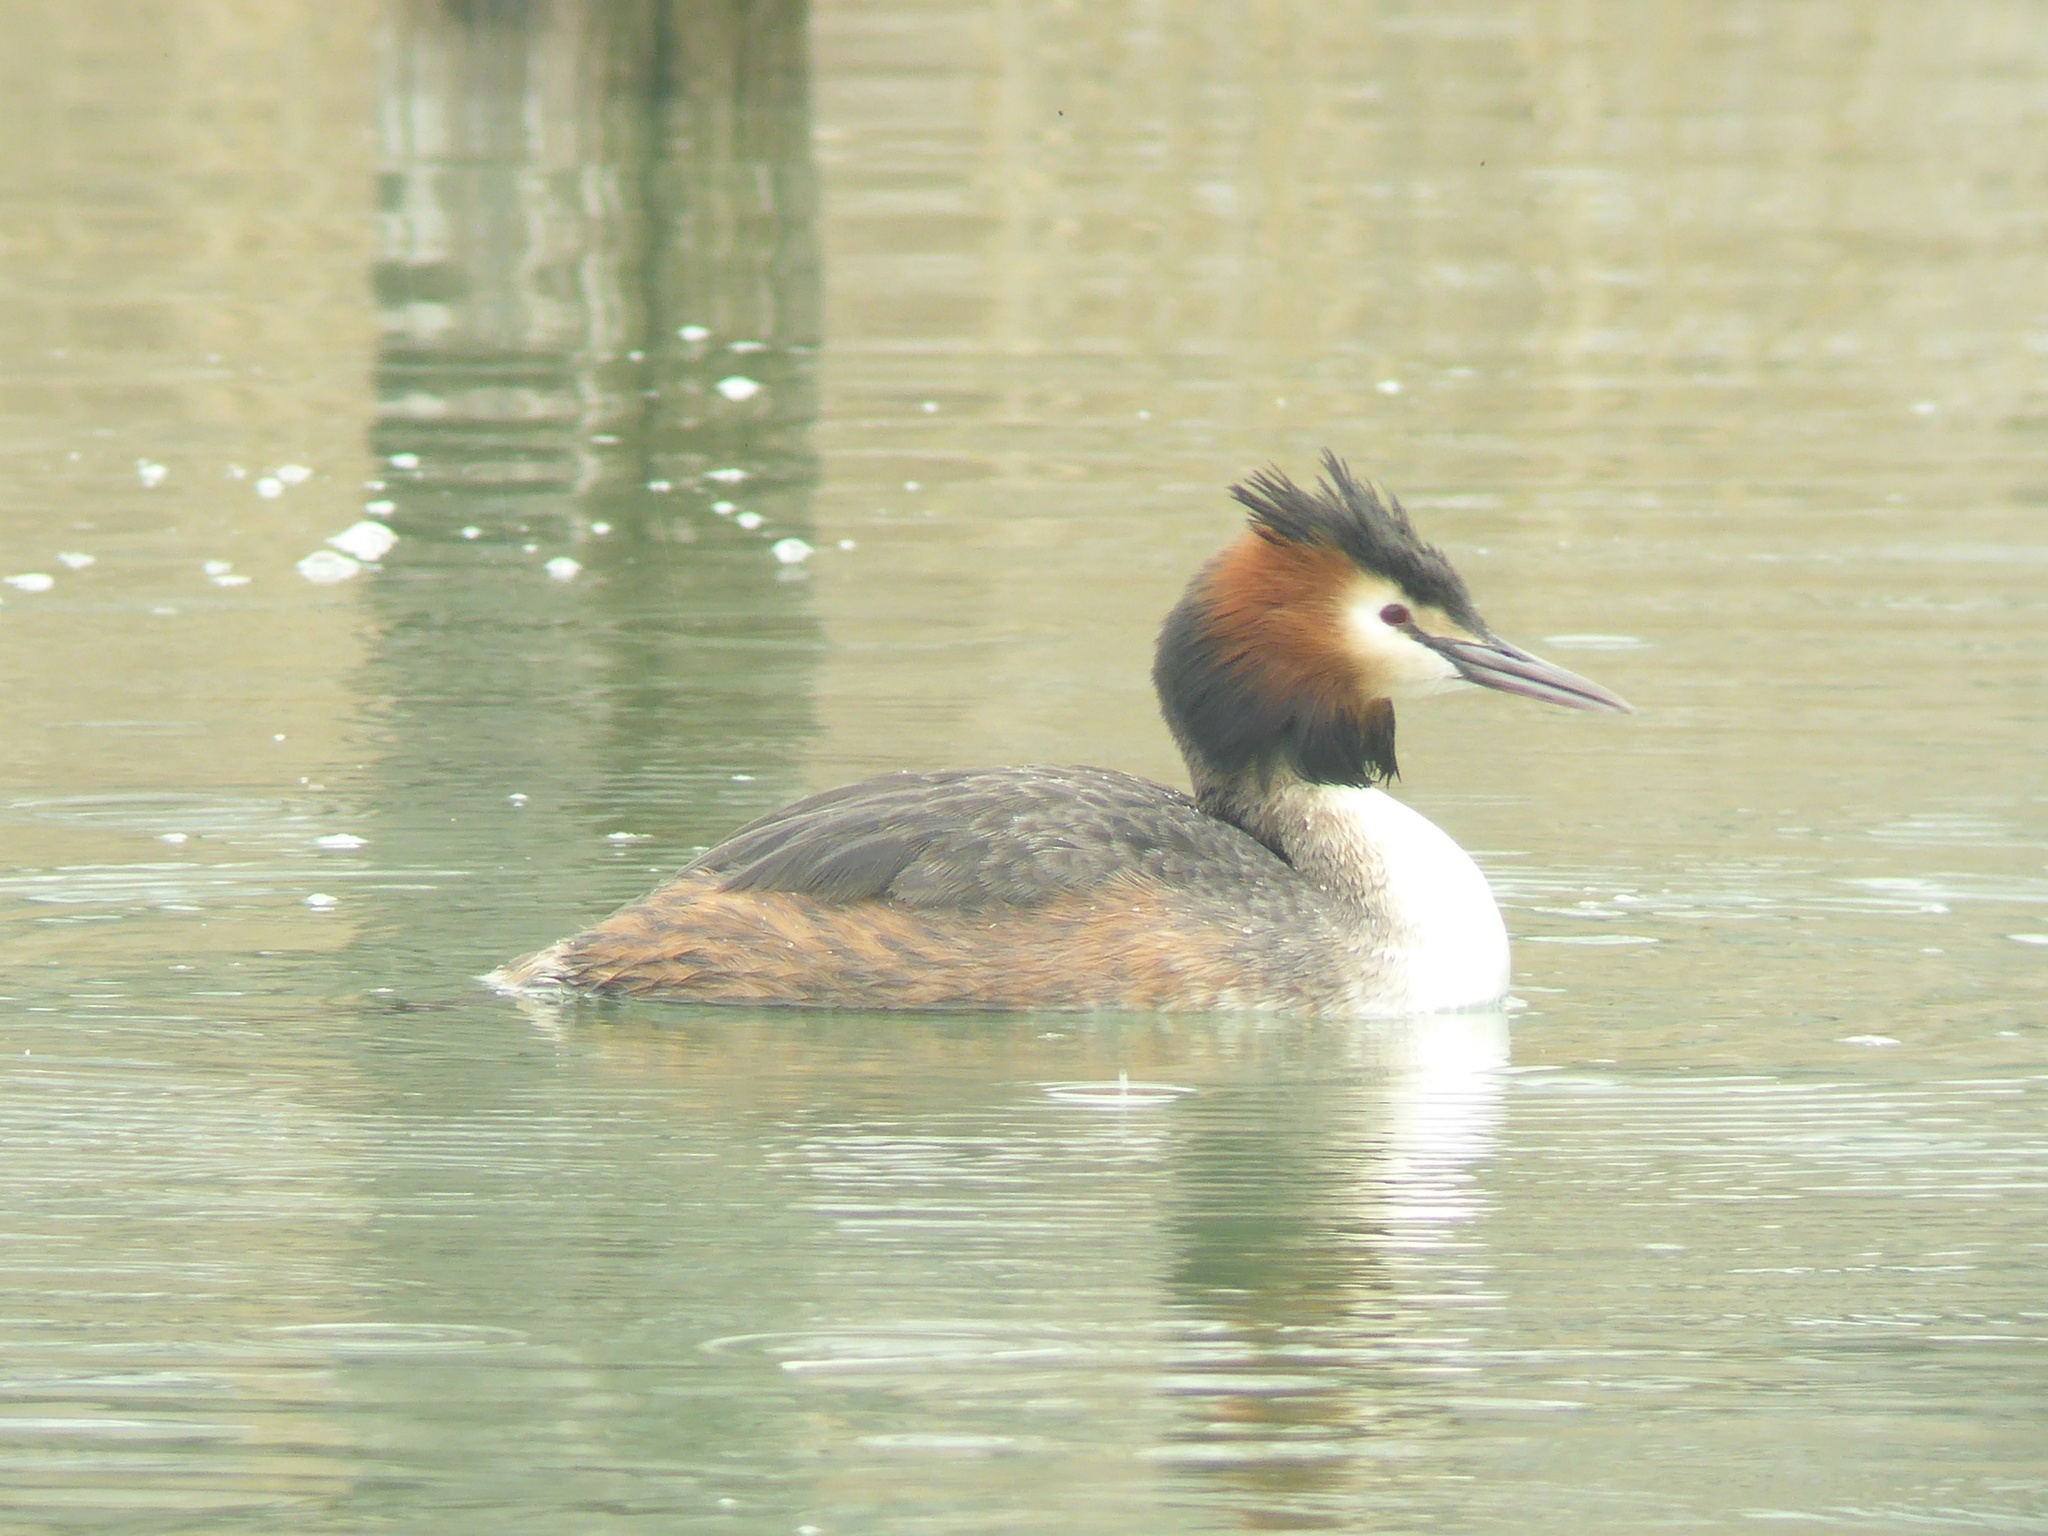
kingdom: Animalia
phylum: Chordata
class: Aves
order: Podicipediformes
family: Podicipedidae
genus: Podiceps
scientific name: Podiceps cristatus
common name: Great crested grebe
